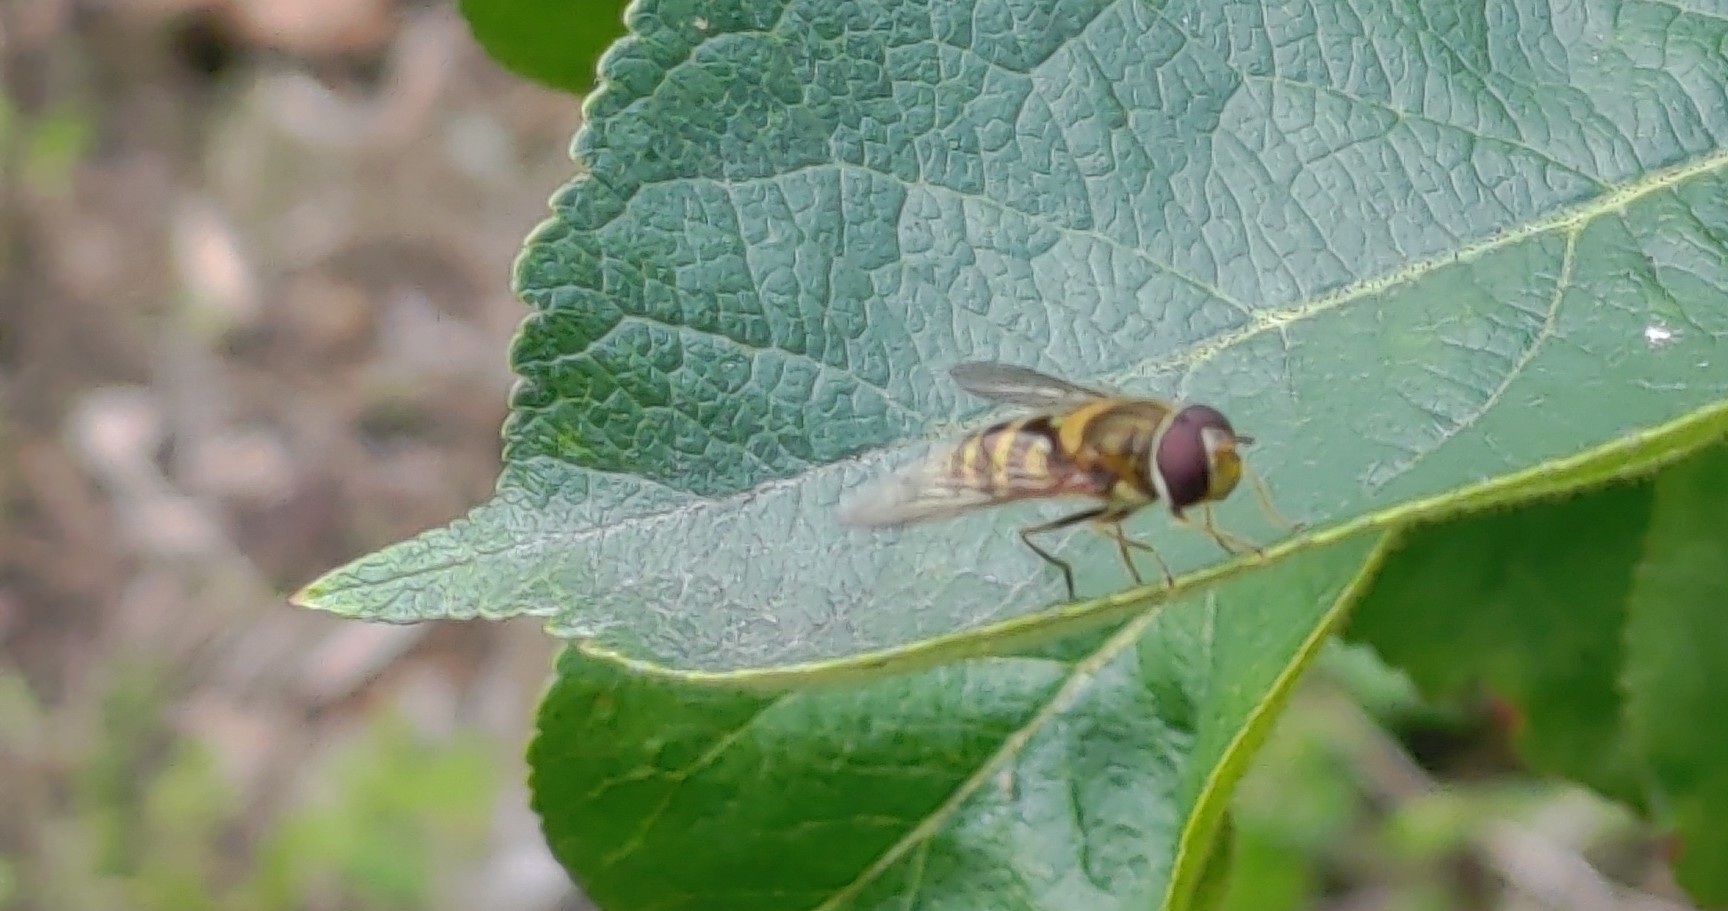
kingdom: Animalia
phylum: Arthropoda
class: Insecta
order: Diptera
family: Syrphidae
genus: Syrphus
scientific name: Syrphus
